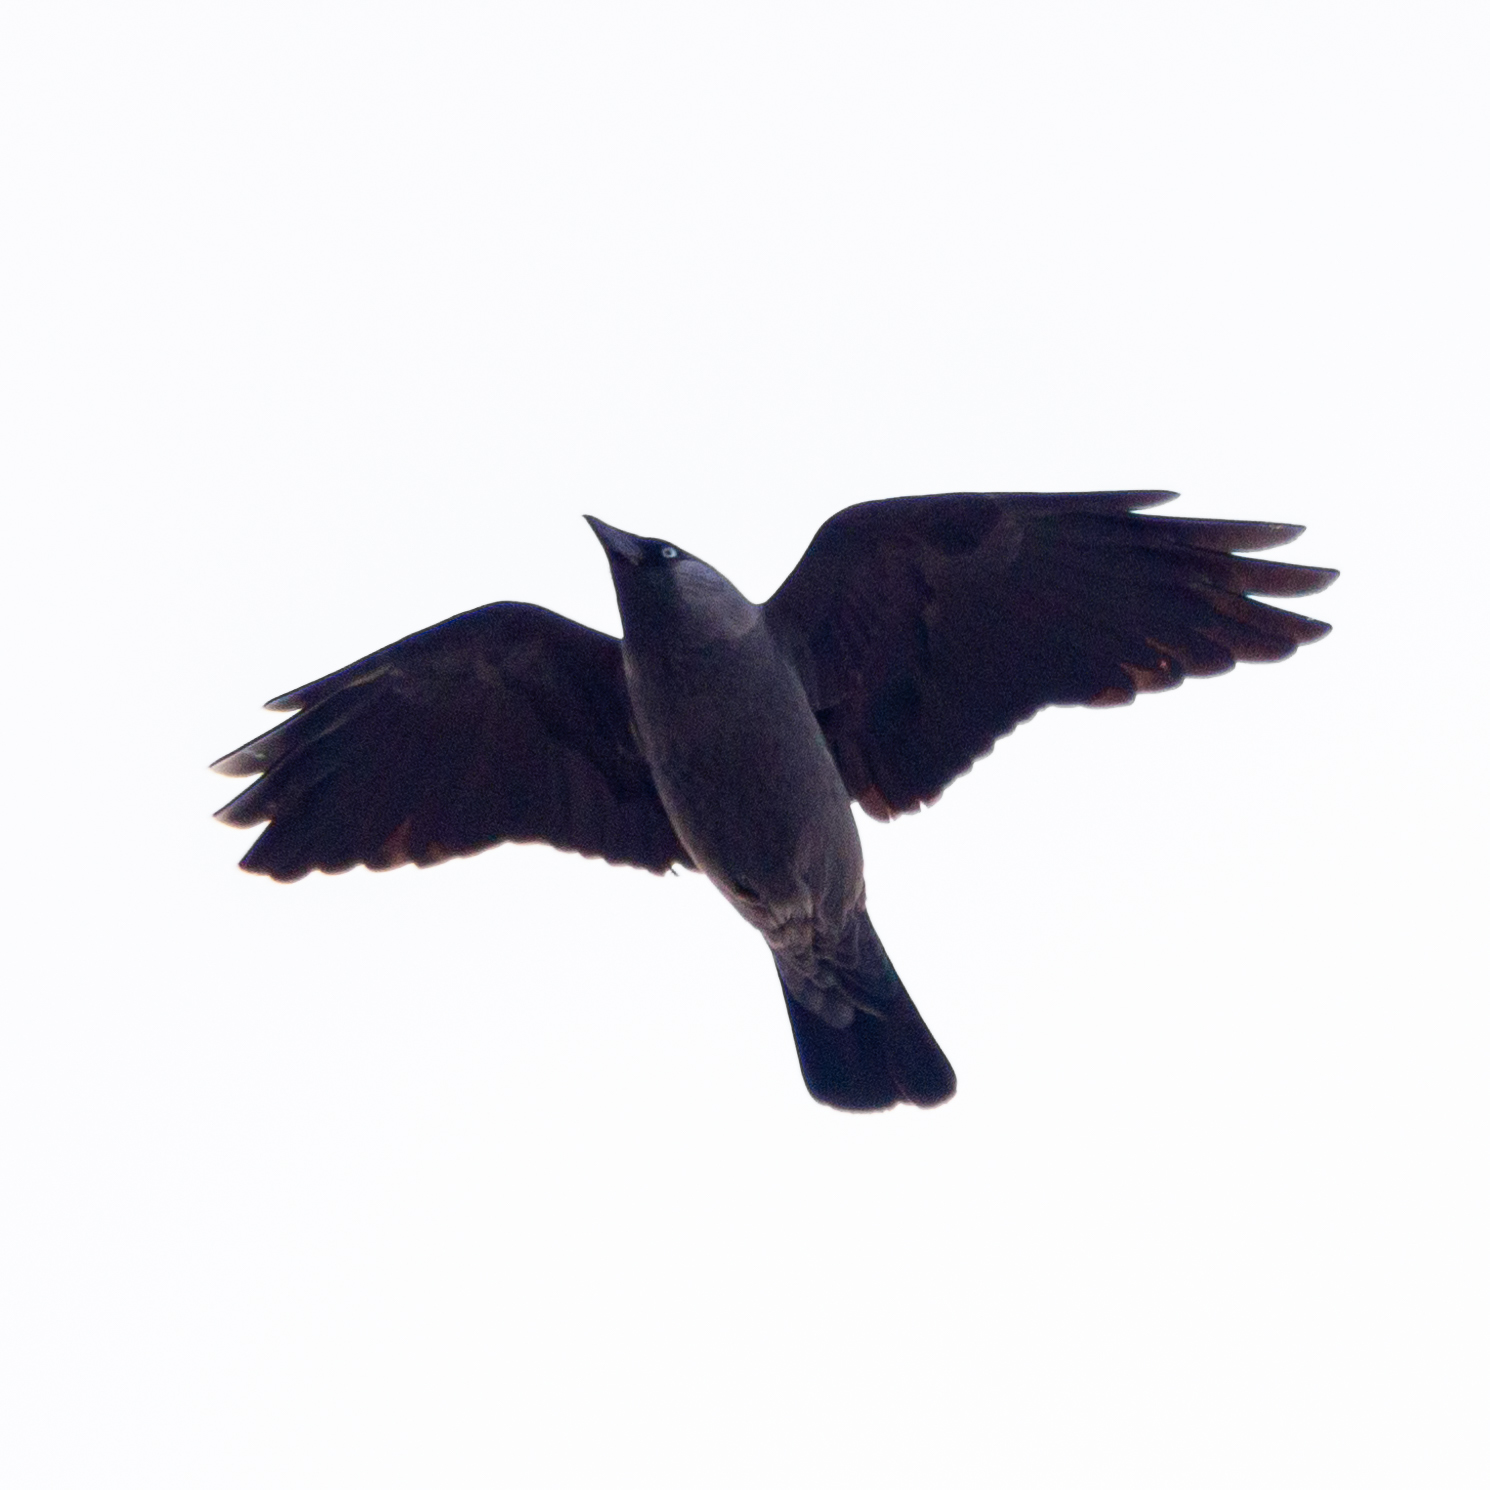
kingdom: Animalia
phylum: Chordata
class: Aves
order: Passeriformes
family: Corvidae
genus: Coloeus
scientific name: Coloeus monedula
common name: Western jackdaw
